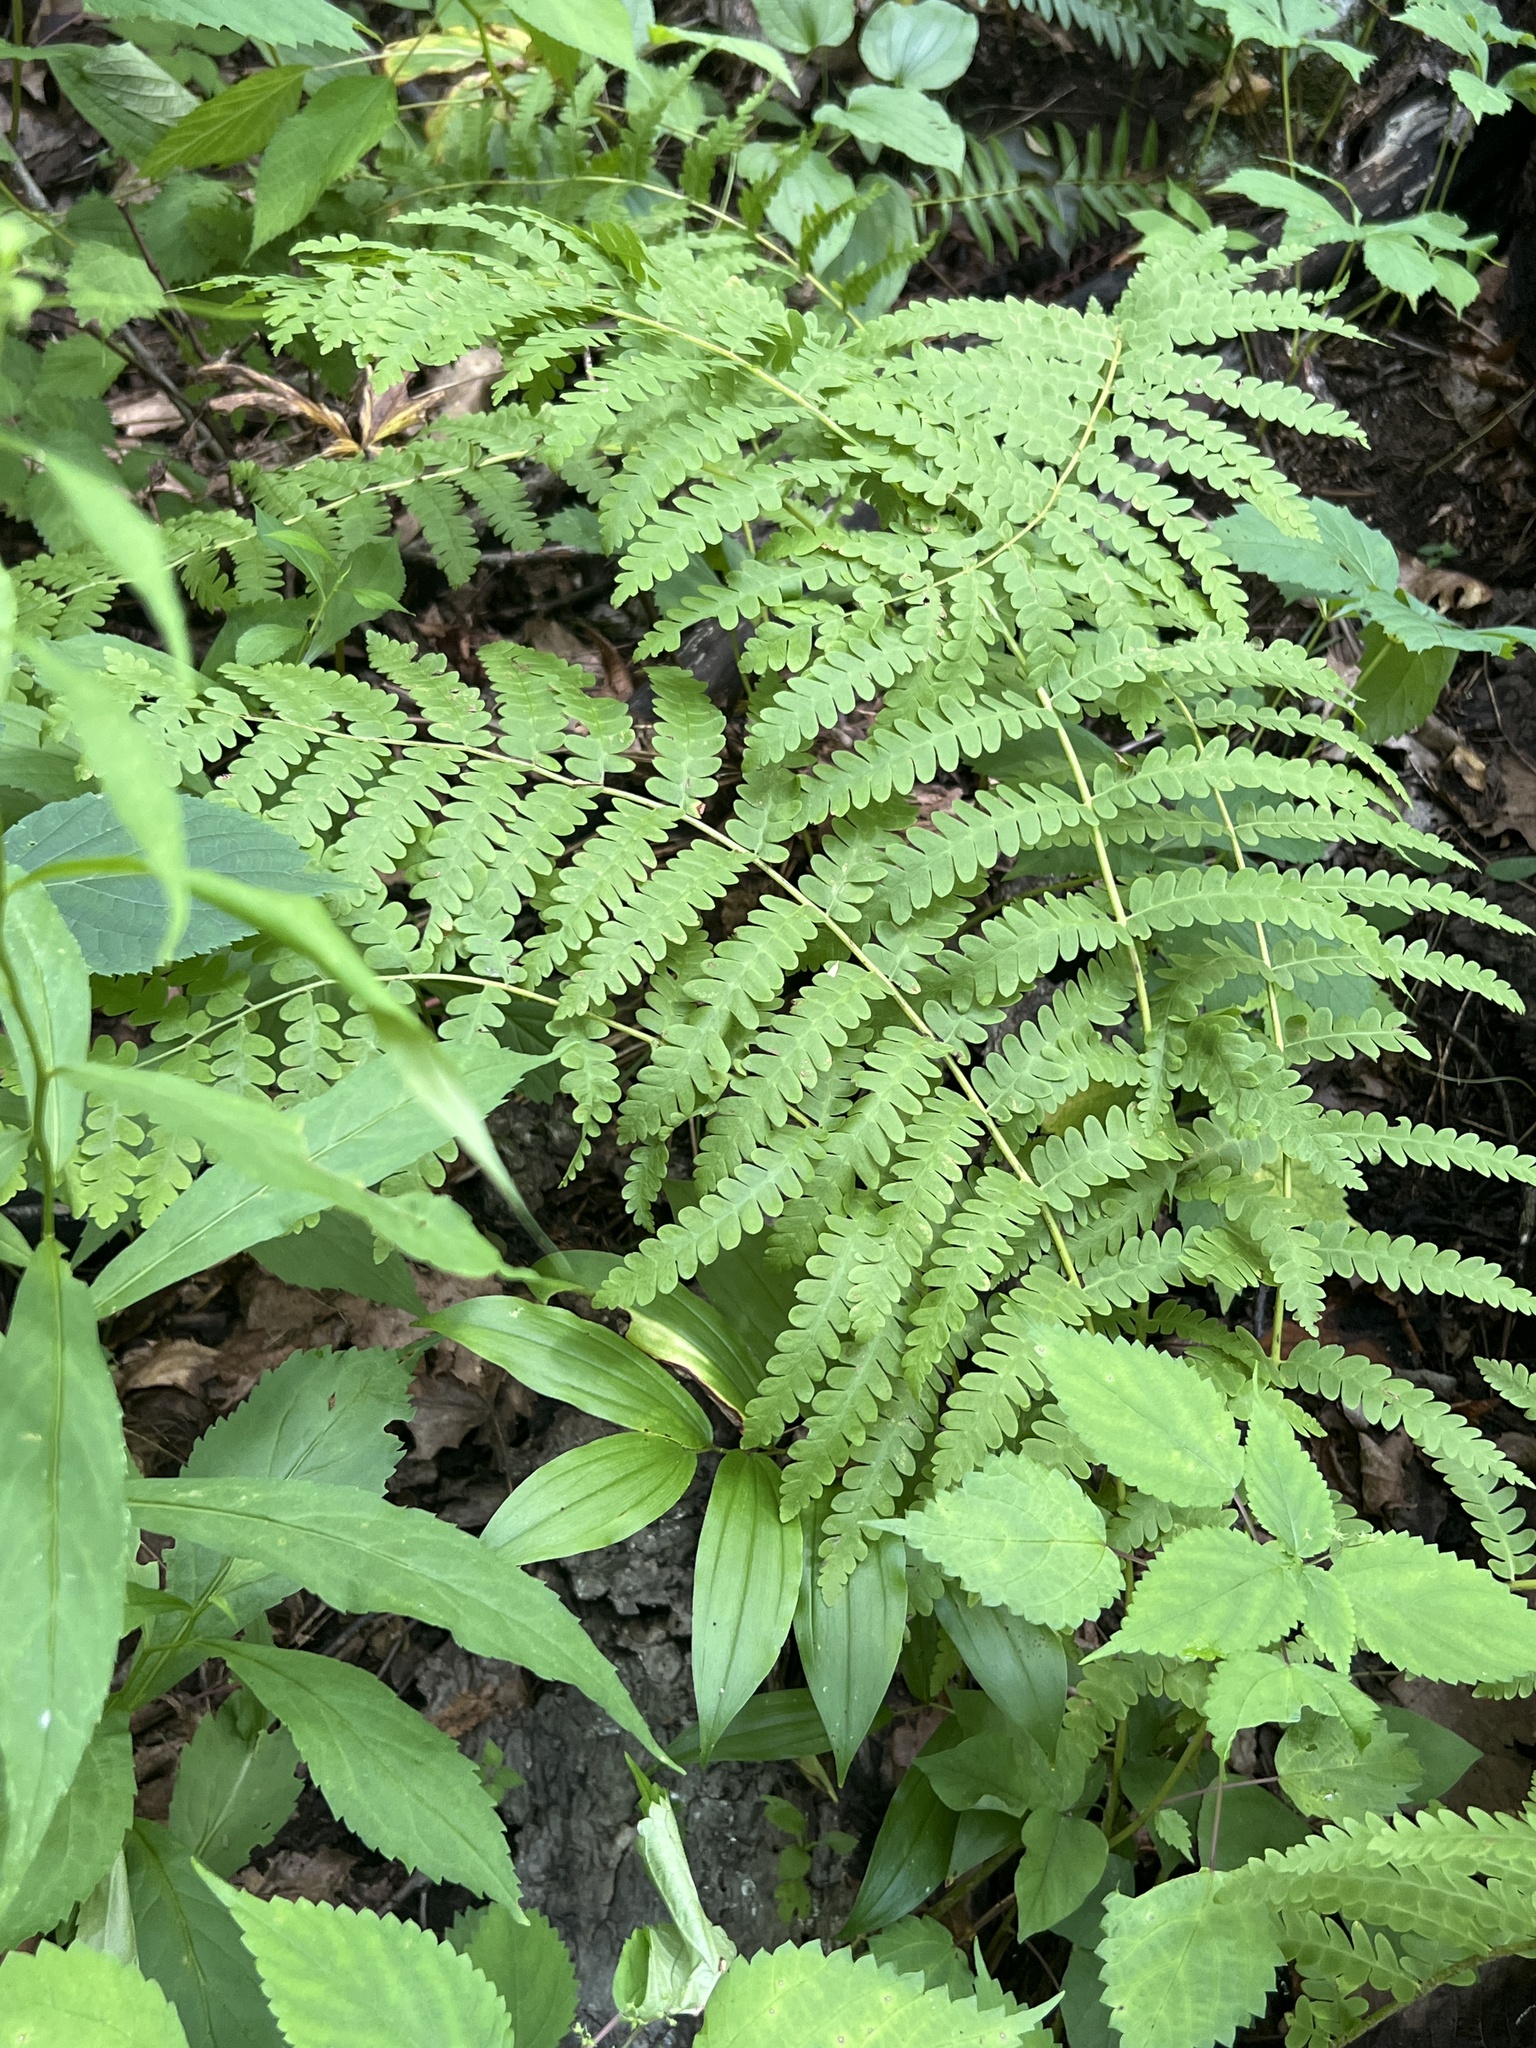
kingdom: Plantae
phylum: Tracheophyta
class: Polypodiopsida
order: Osmundales
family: Osmundaceae
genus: Claytosmunda
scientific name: Claytosmunda claytoniana
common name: Clayton's fern
